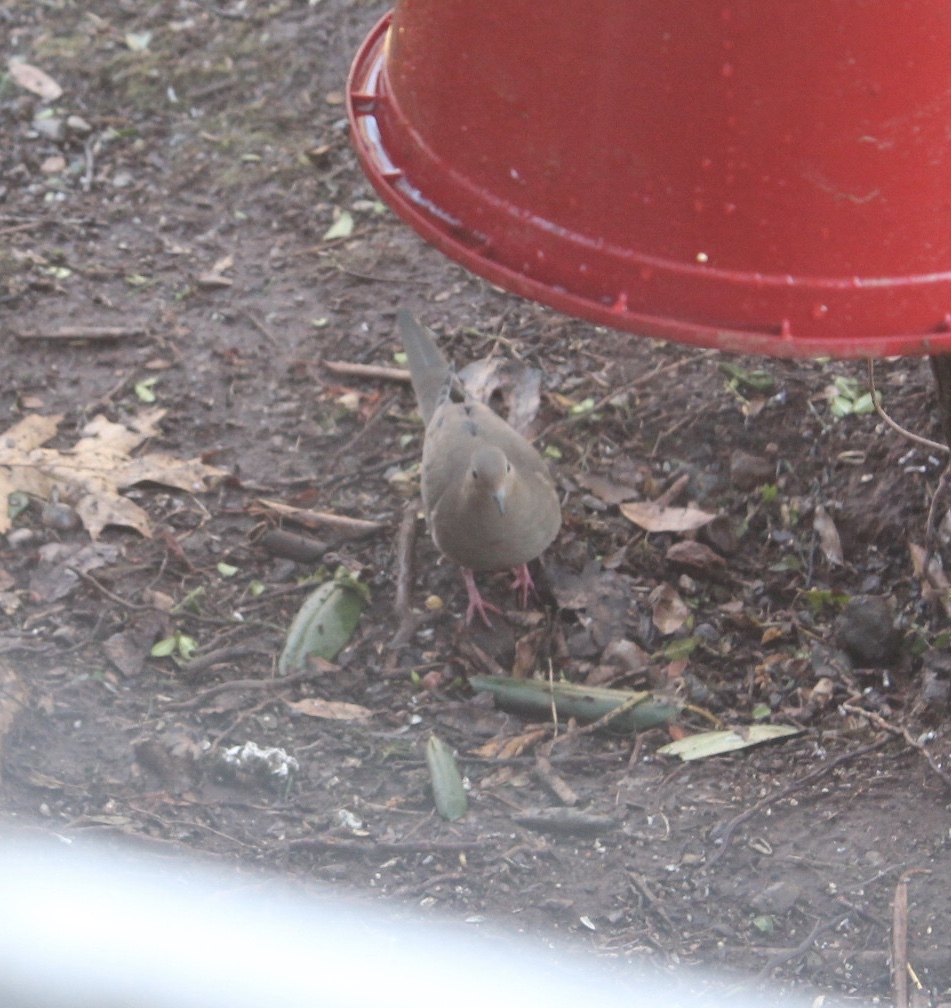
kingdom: Animalia
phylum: Chordata
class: Aves
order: Columbiformes
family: Columbidae
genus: Zenaida
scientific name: Zenaida macroura
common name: Mourning dove
